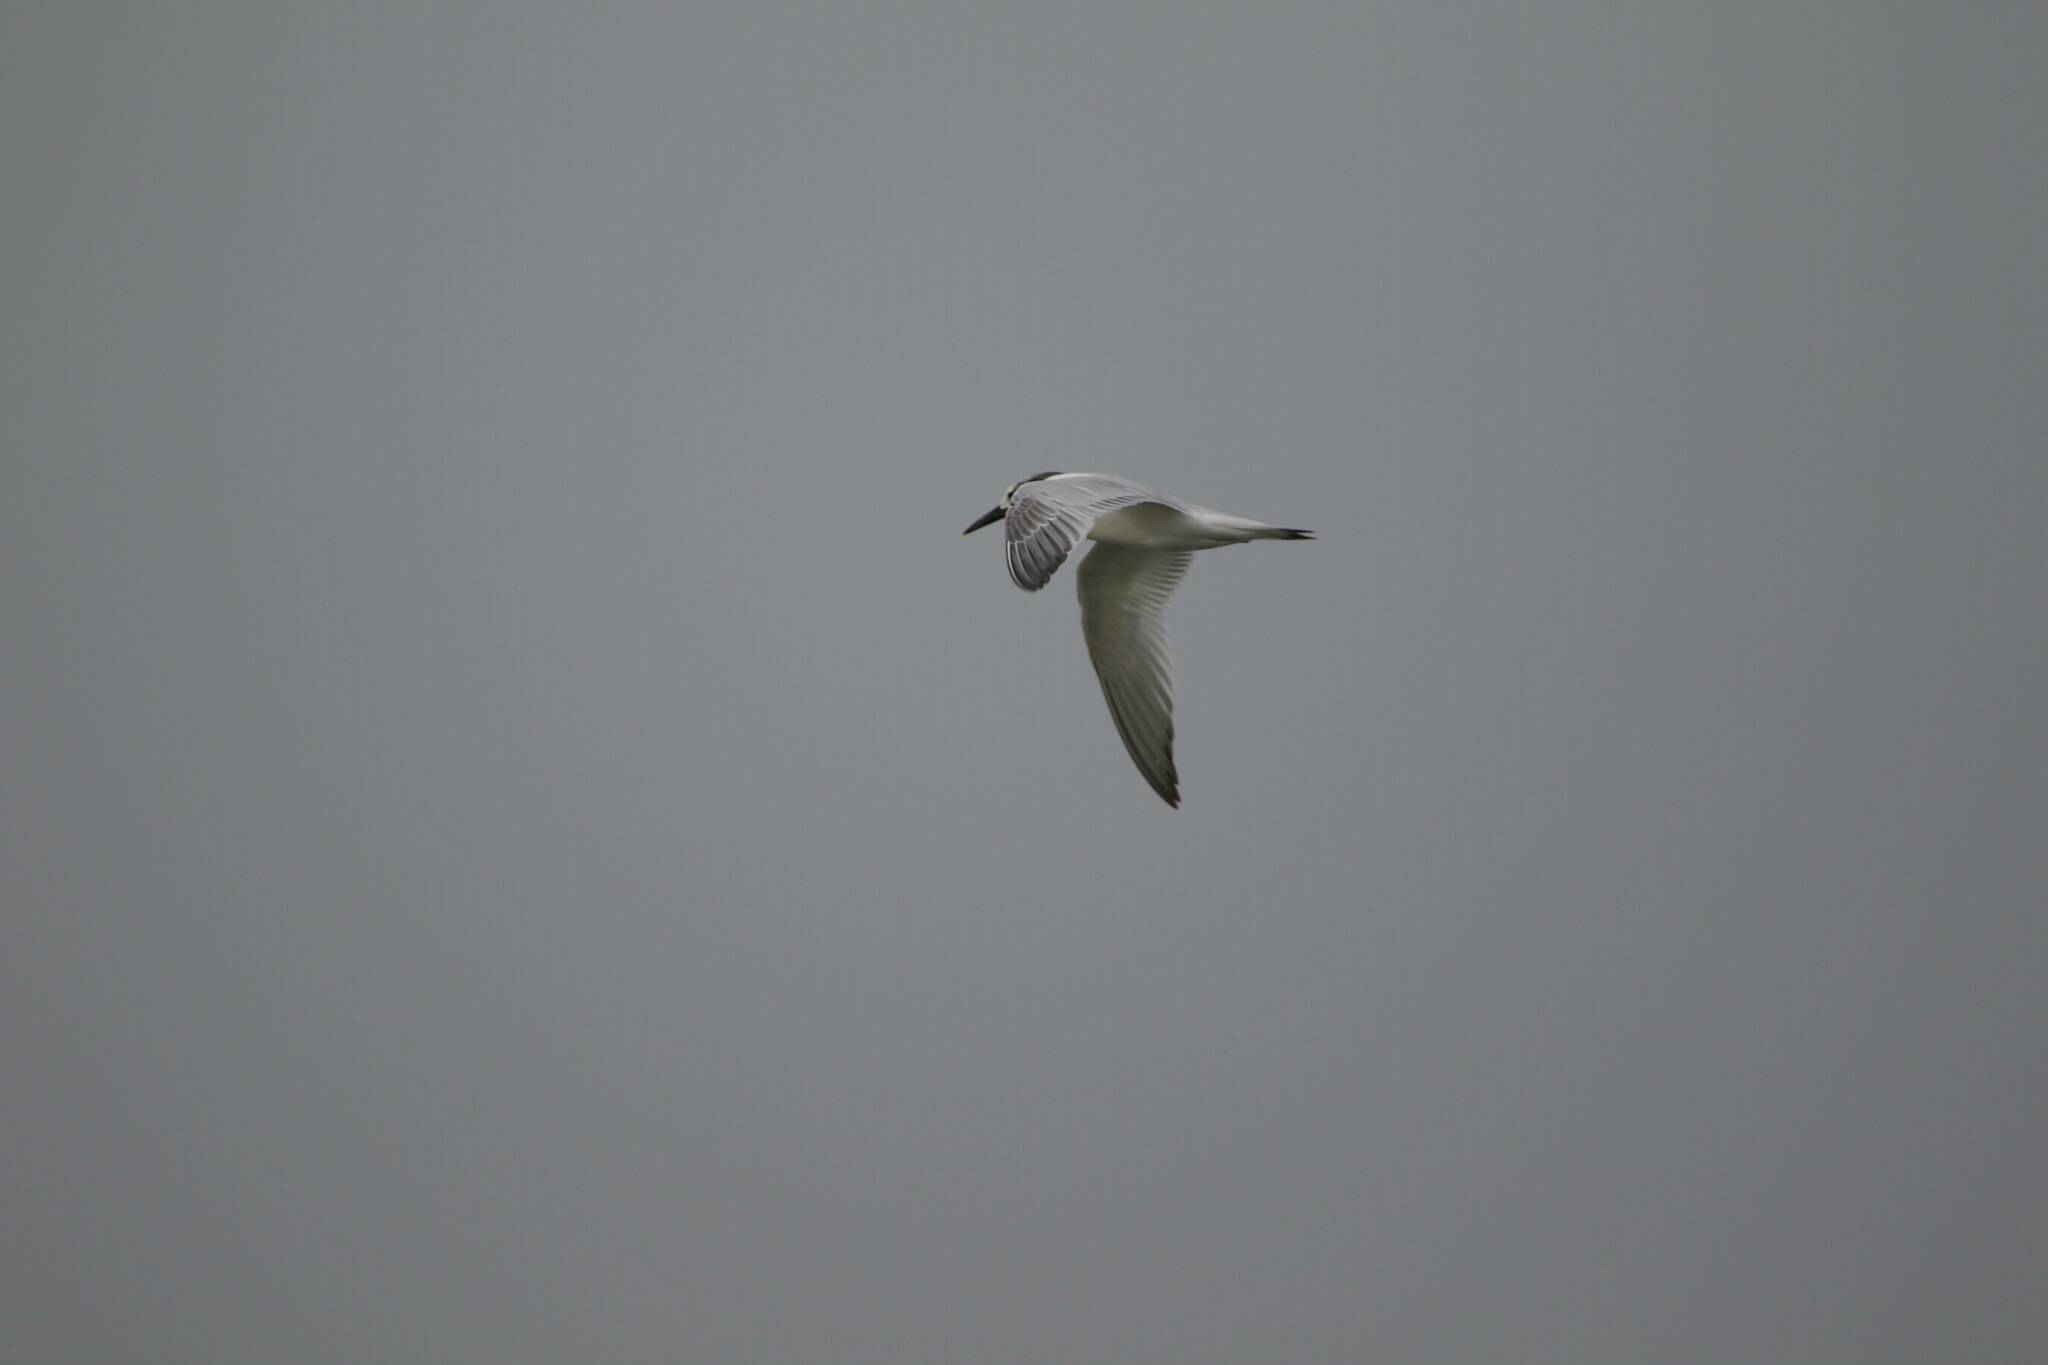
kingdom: Animalia
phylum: Chordata
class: Aves
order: Charadriiformes
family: Laridae
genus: Thalasseus
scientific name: Thalasseus sandvicensis
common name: Sandwich tern
